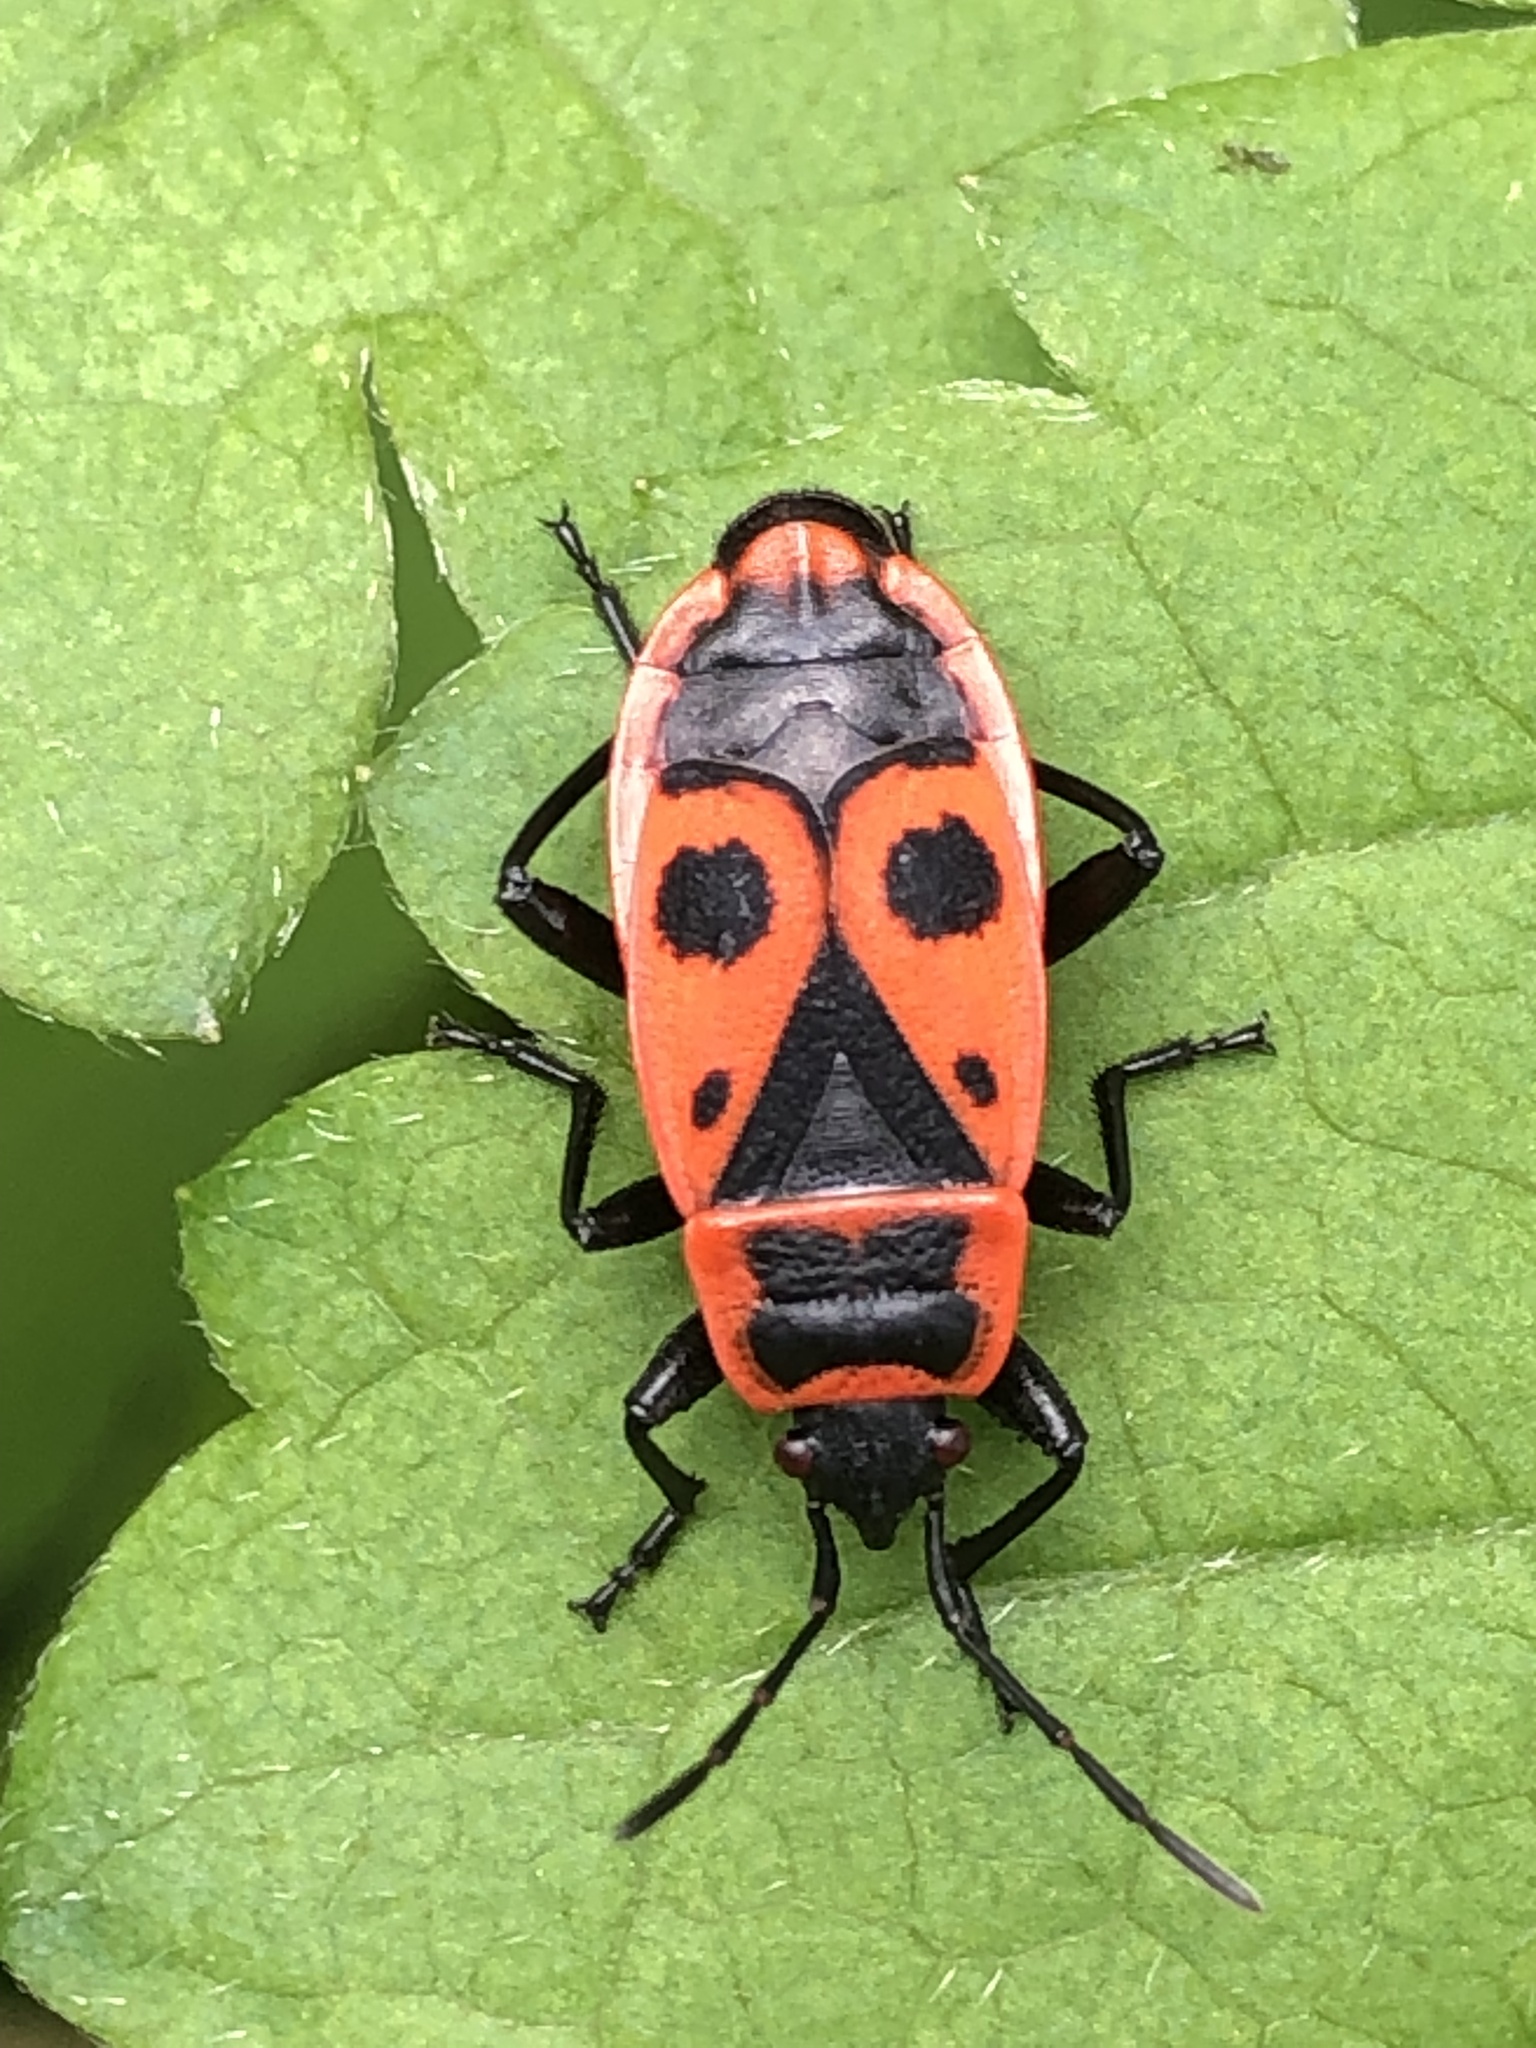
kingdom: Animalia
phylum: Arthropoda
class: Insecta
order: Hemiptera
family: Pyrrhocoridae
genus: Pyrrhocoris
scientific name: Pyrrhocoris apterus
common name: Firebug
